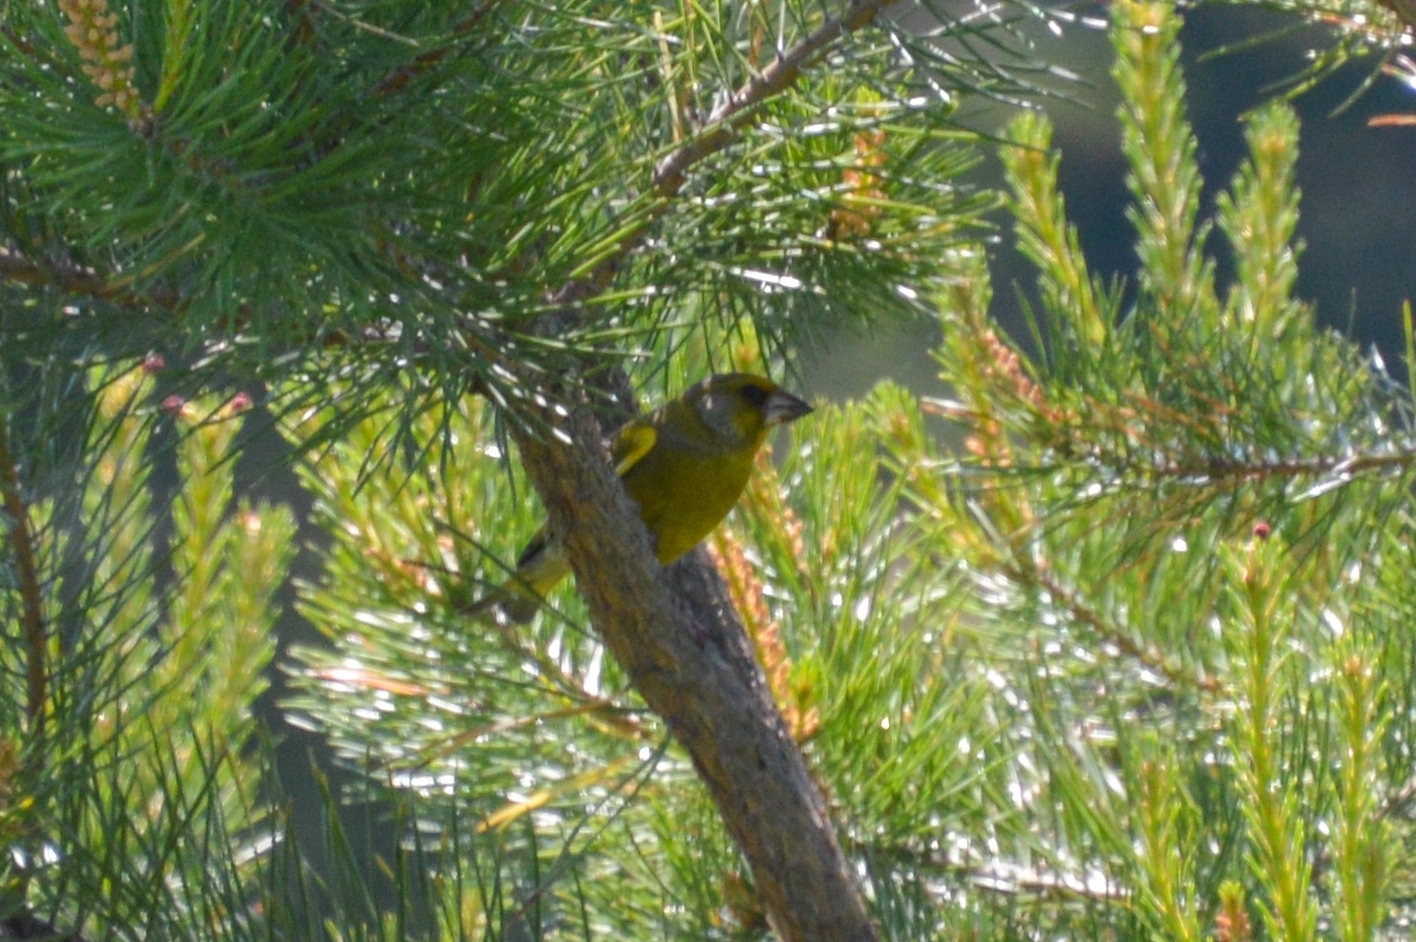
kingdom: Plantae
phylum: Tracheophyta
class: Liliopsida
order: Poales
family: Poaceae
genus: Chloris
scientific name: Chloris chloris
